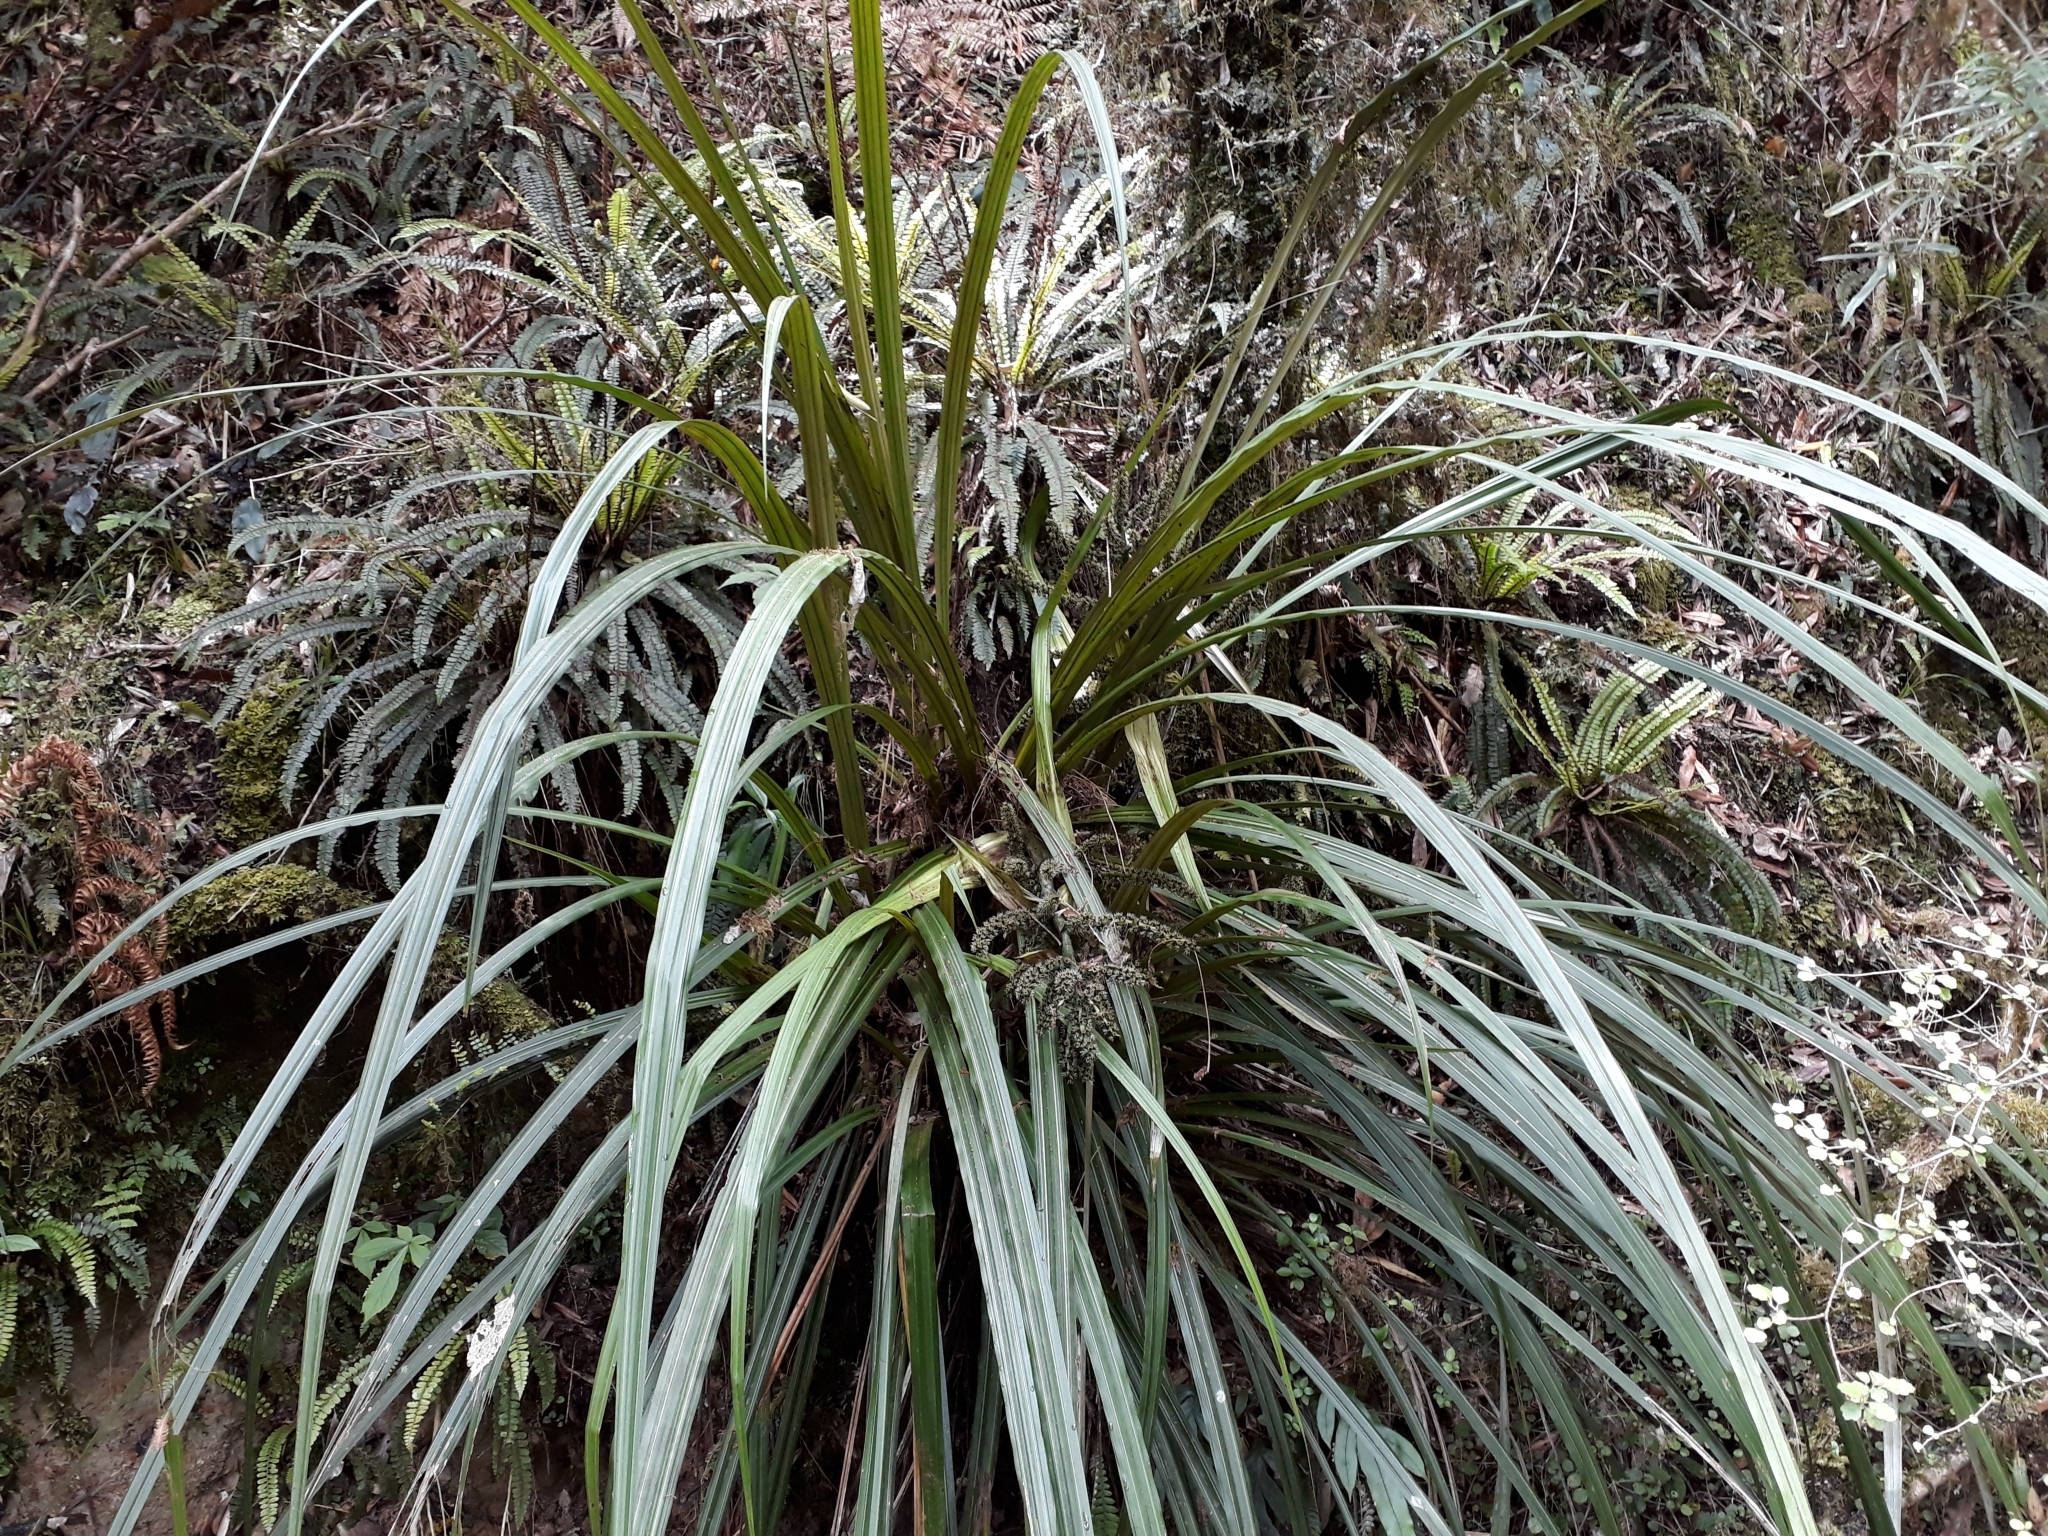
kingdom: Plantae
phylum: Tracheophyta
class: Liliopsida
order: Asparagales
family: Asteliaceae
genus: Astelia
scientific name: Astelia fragrans
